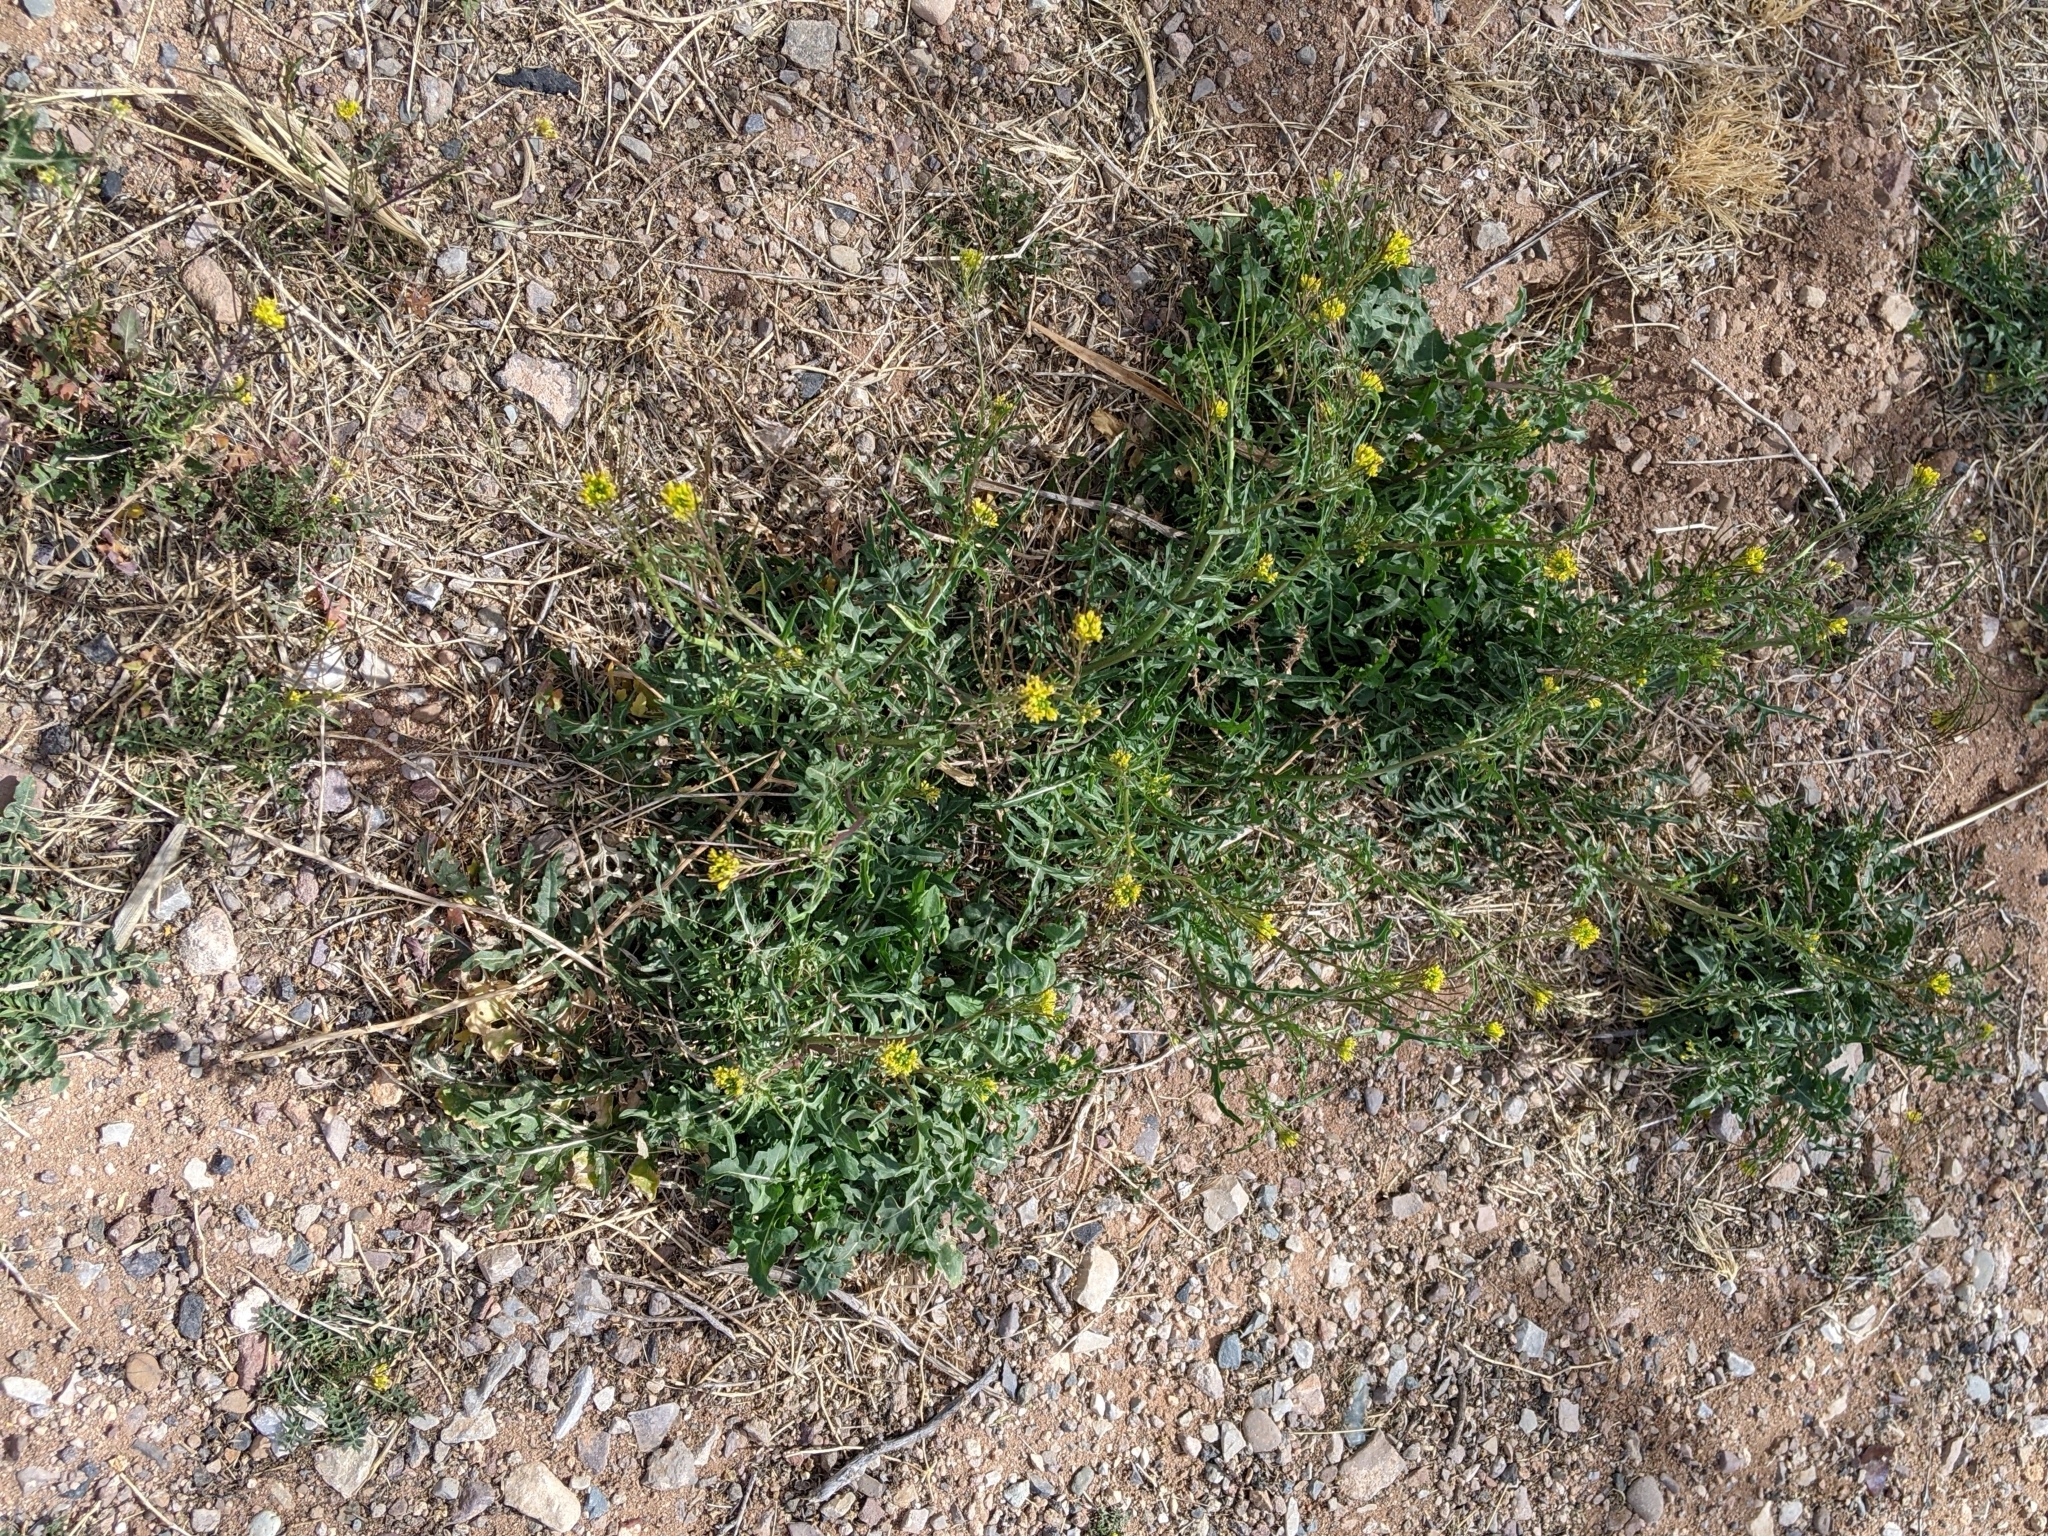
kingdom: Plantae
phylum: Tracheophyta
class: Magnoliopsida
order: Brassicales
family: Brassicaceae
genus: Sisymbrium
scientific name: Sisymbrium irio
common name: London rocket
